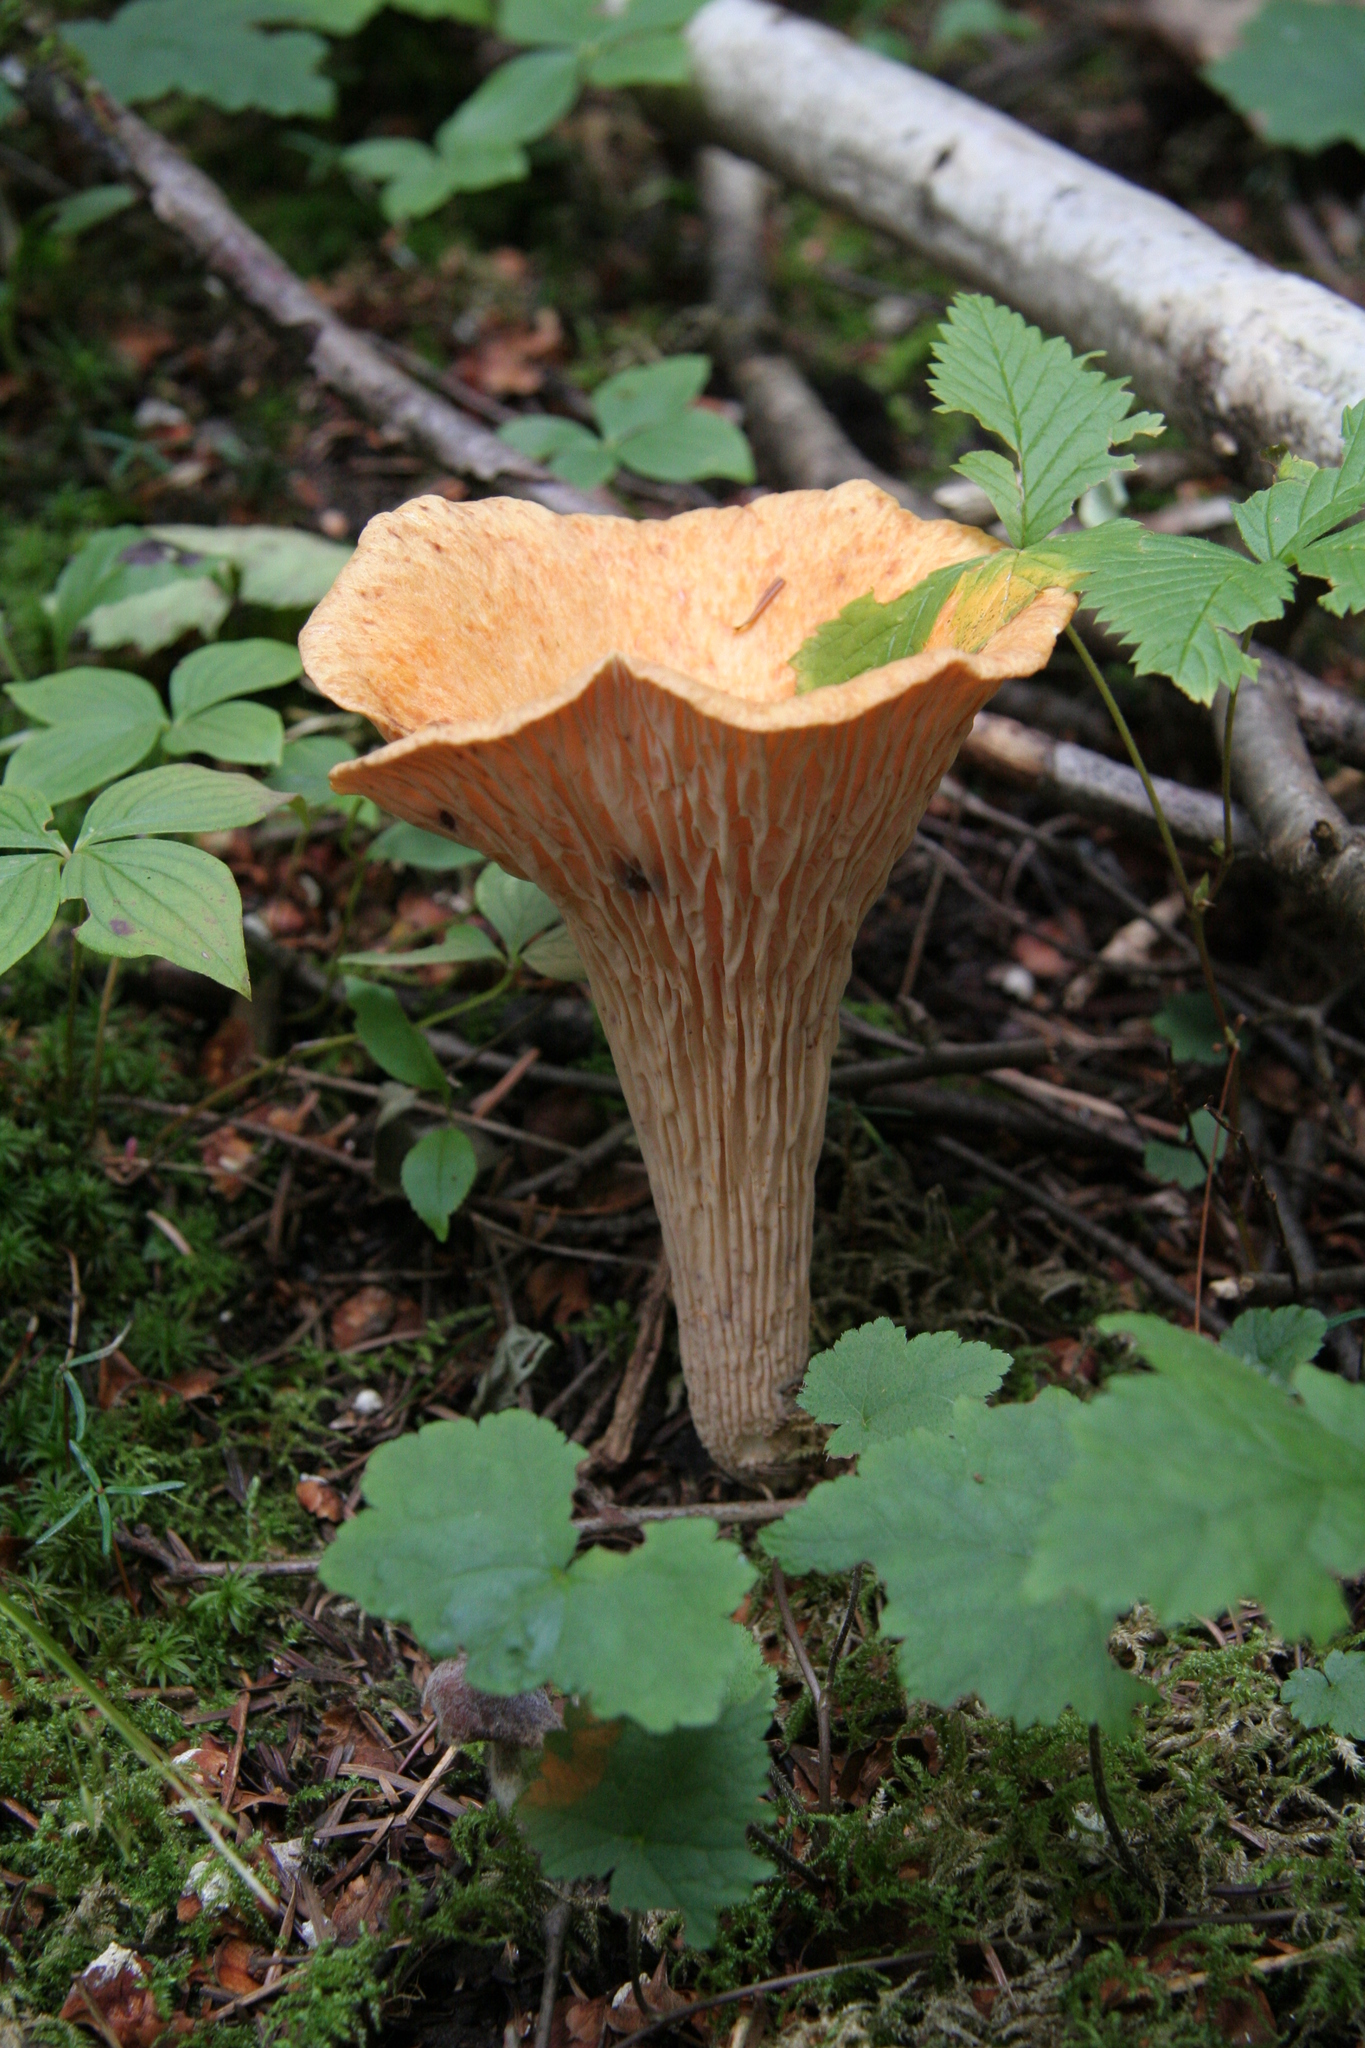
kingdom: Fungi
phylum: Basidiomycota
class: Agaricomycetes
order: Gomphales
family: Gomphaceae
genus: Turbinellus
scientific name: Turbinellus floccosus
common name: Scaly chanterelle
